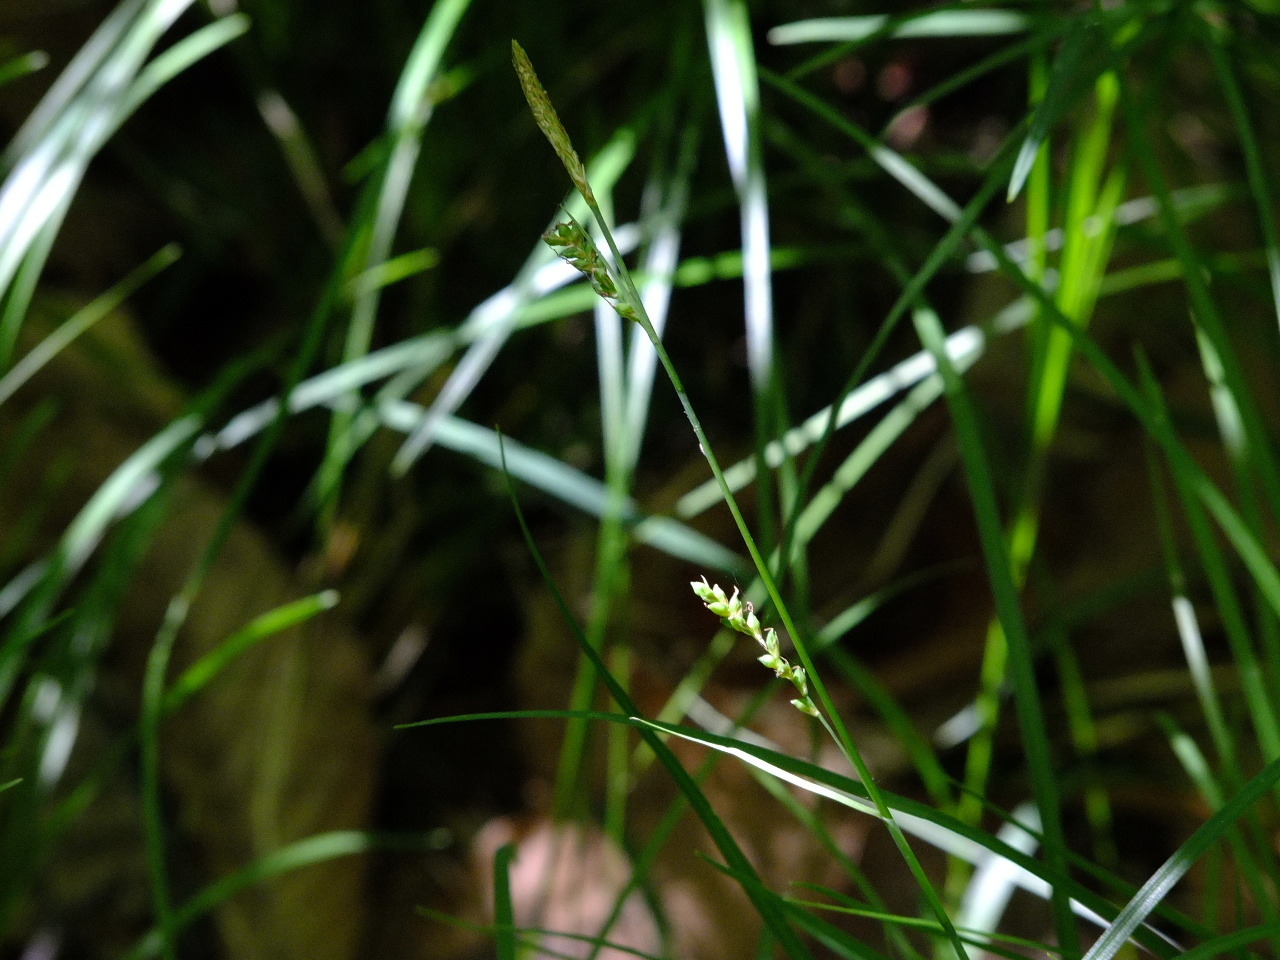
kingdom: Plantae
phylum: Tracheophyta
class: Liliopsida
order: Poales
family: Cyperaceae
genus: Carex
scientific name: Carex woodii
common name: Wood's sedge
